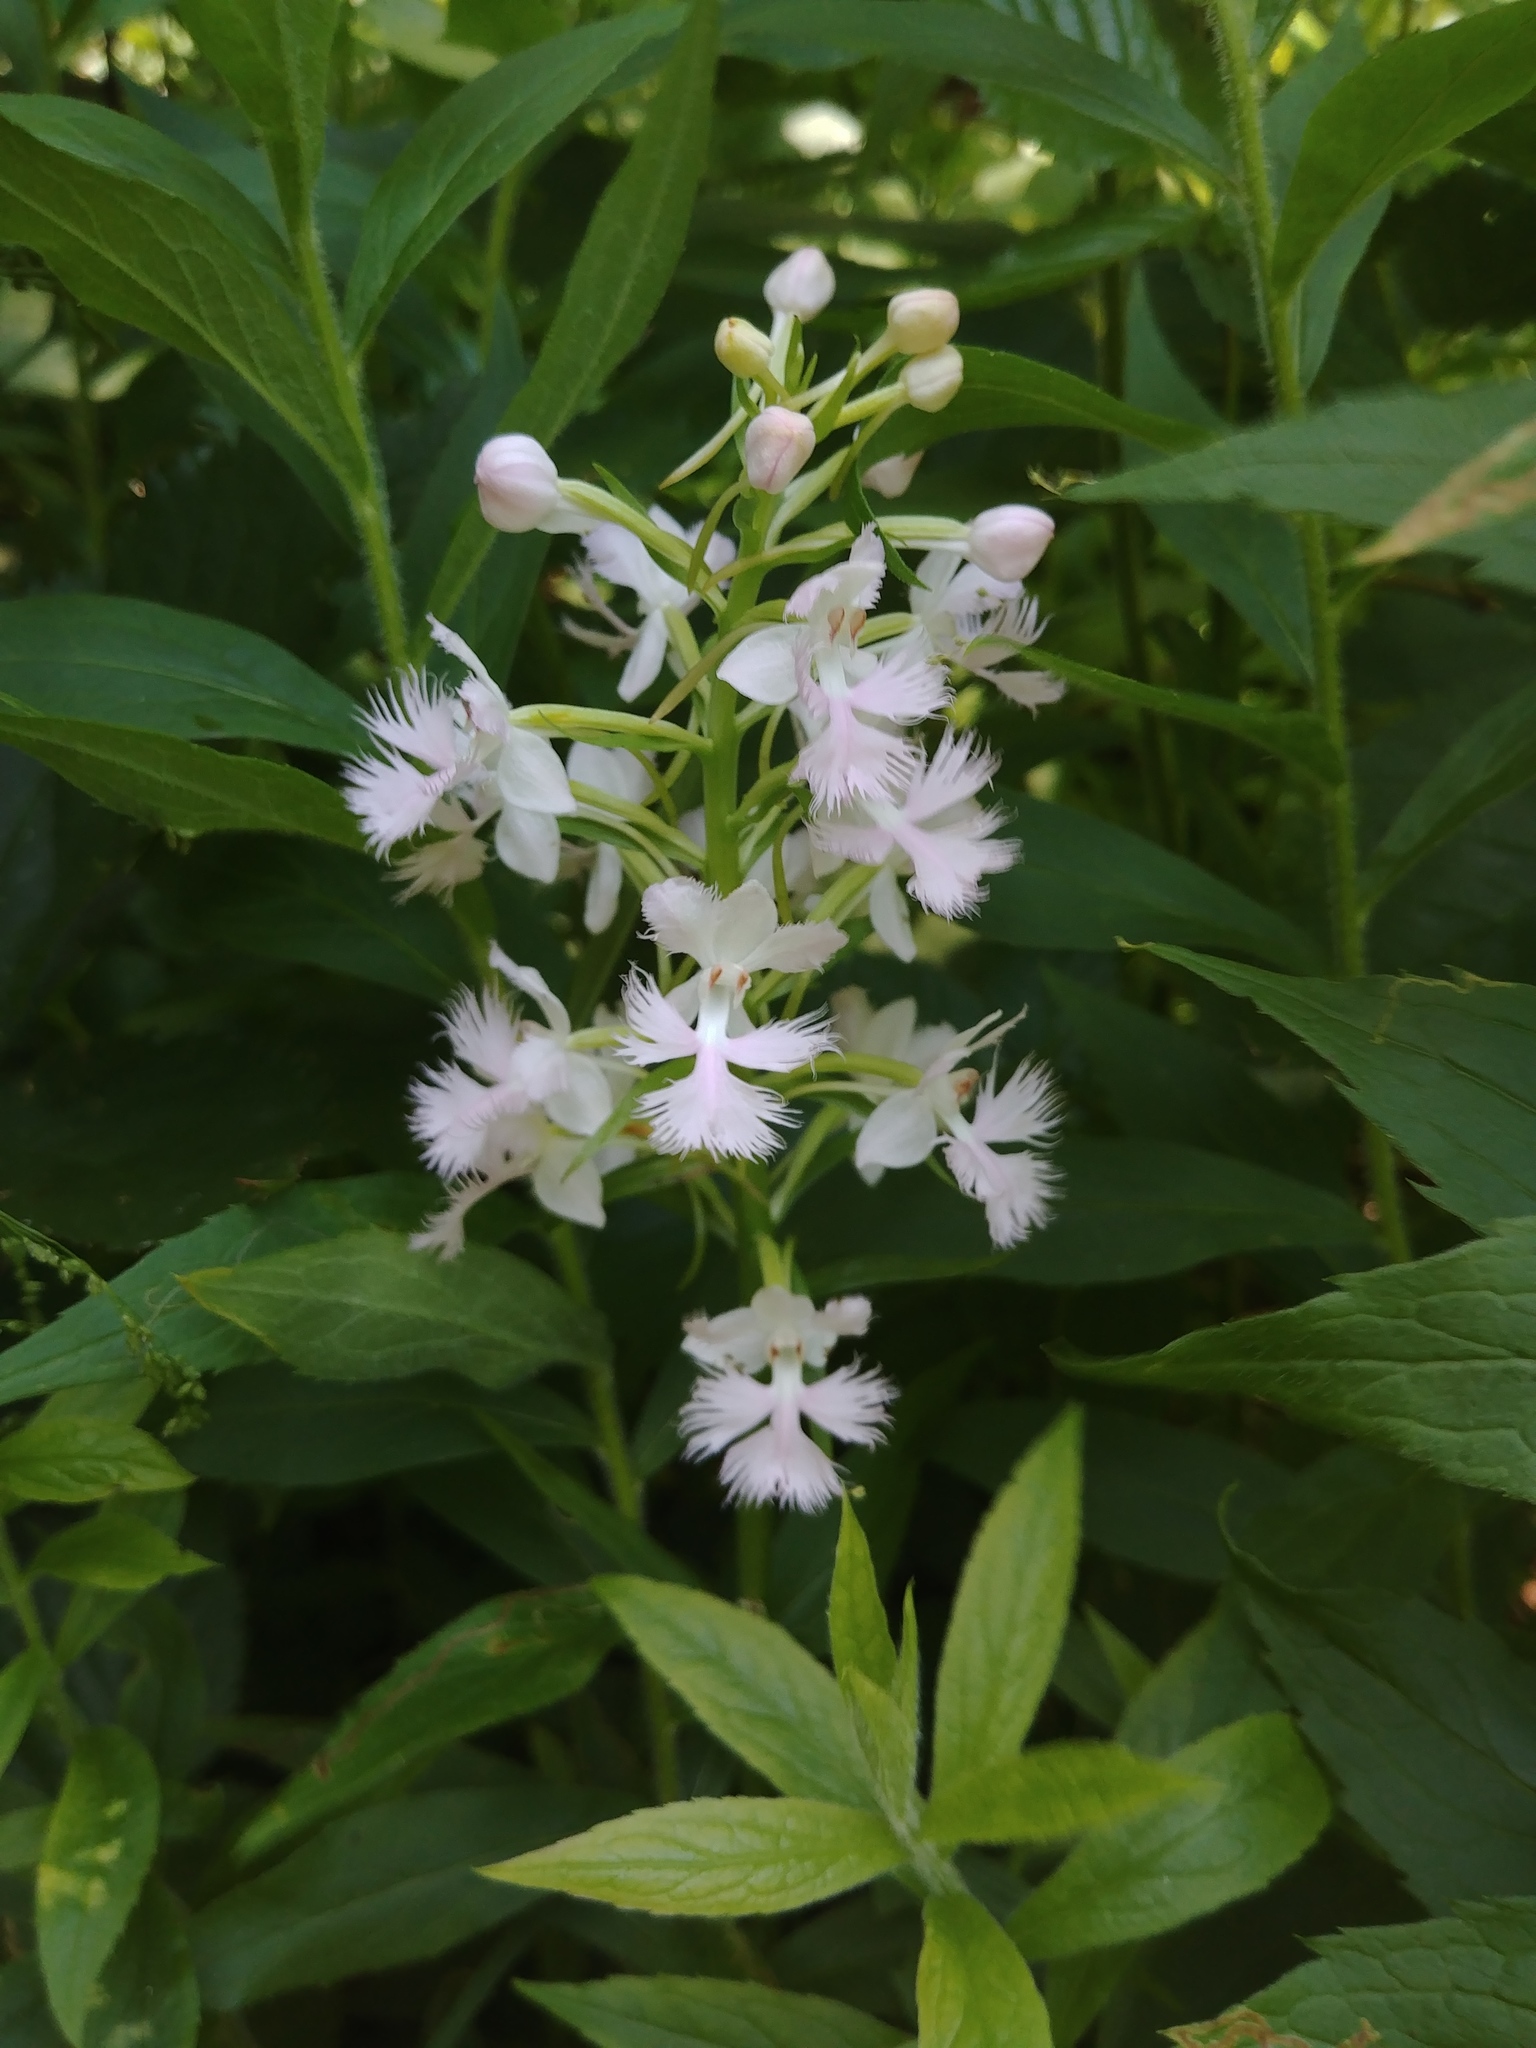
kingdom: Plantae
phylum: Tracheophyta
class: Liliopsida
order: Asparagales
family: Orchidaceae
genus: Platanthera
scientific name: Platanthera grandiflora
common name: Greater purple fringed orchid
